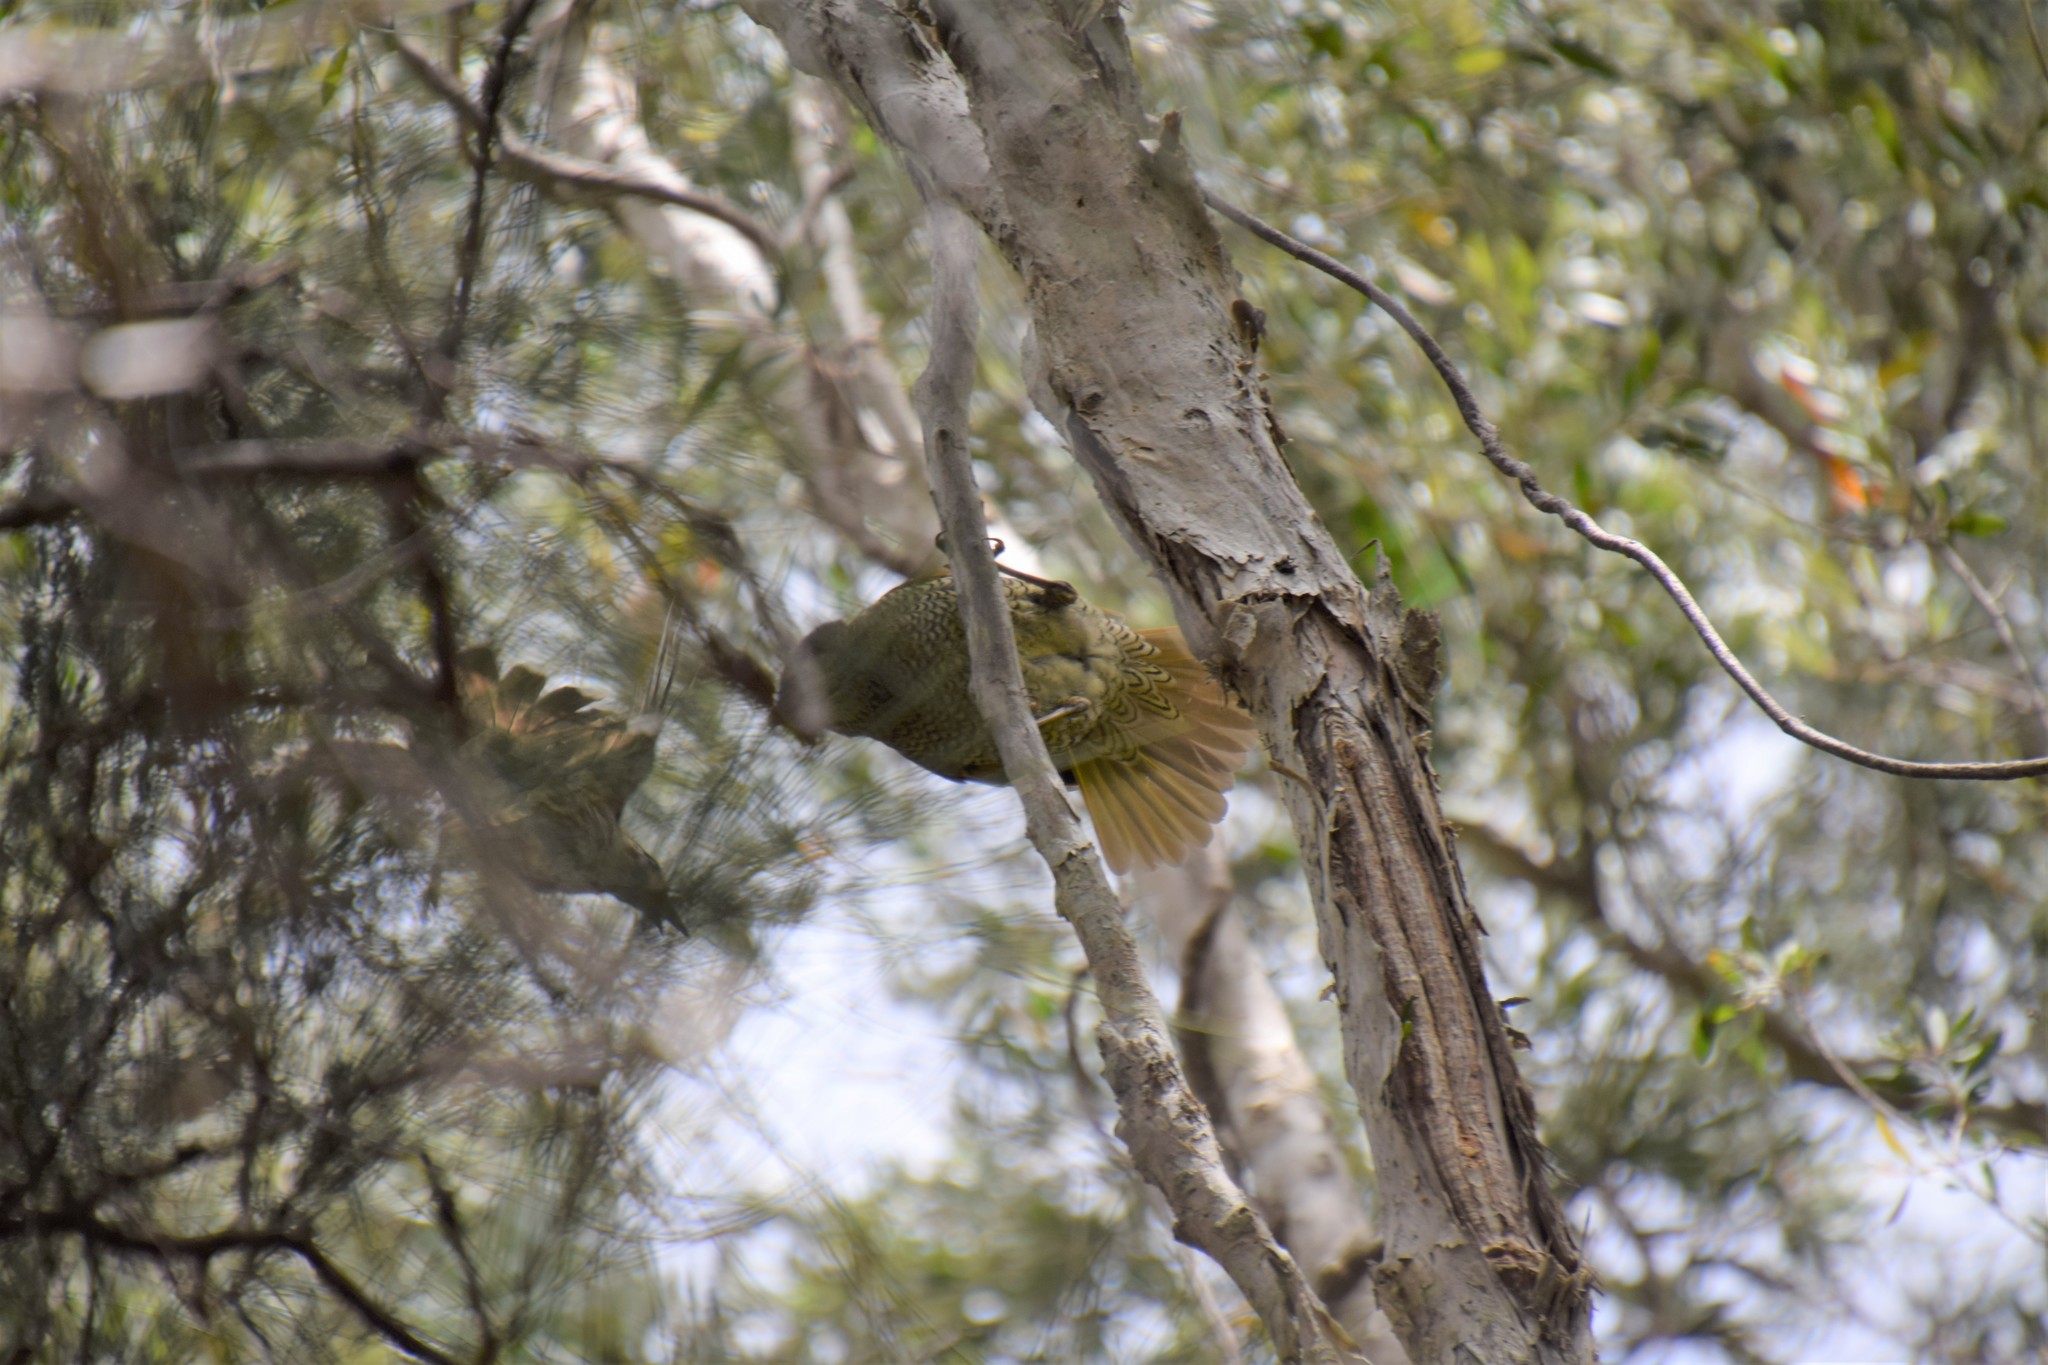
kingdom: Animalia
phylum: Chordata
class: Aves
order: Passeriformes
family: Ptilonorhynchidae
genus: Ptilonorhynchus
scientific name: Ptilonorhynchus violaceus
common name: Satin bowerbird
